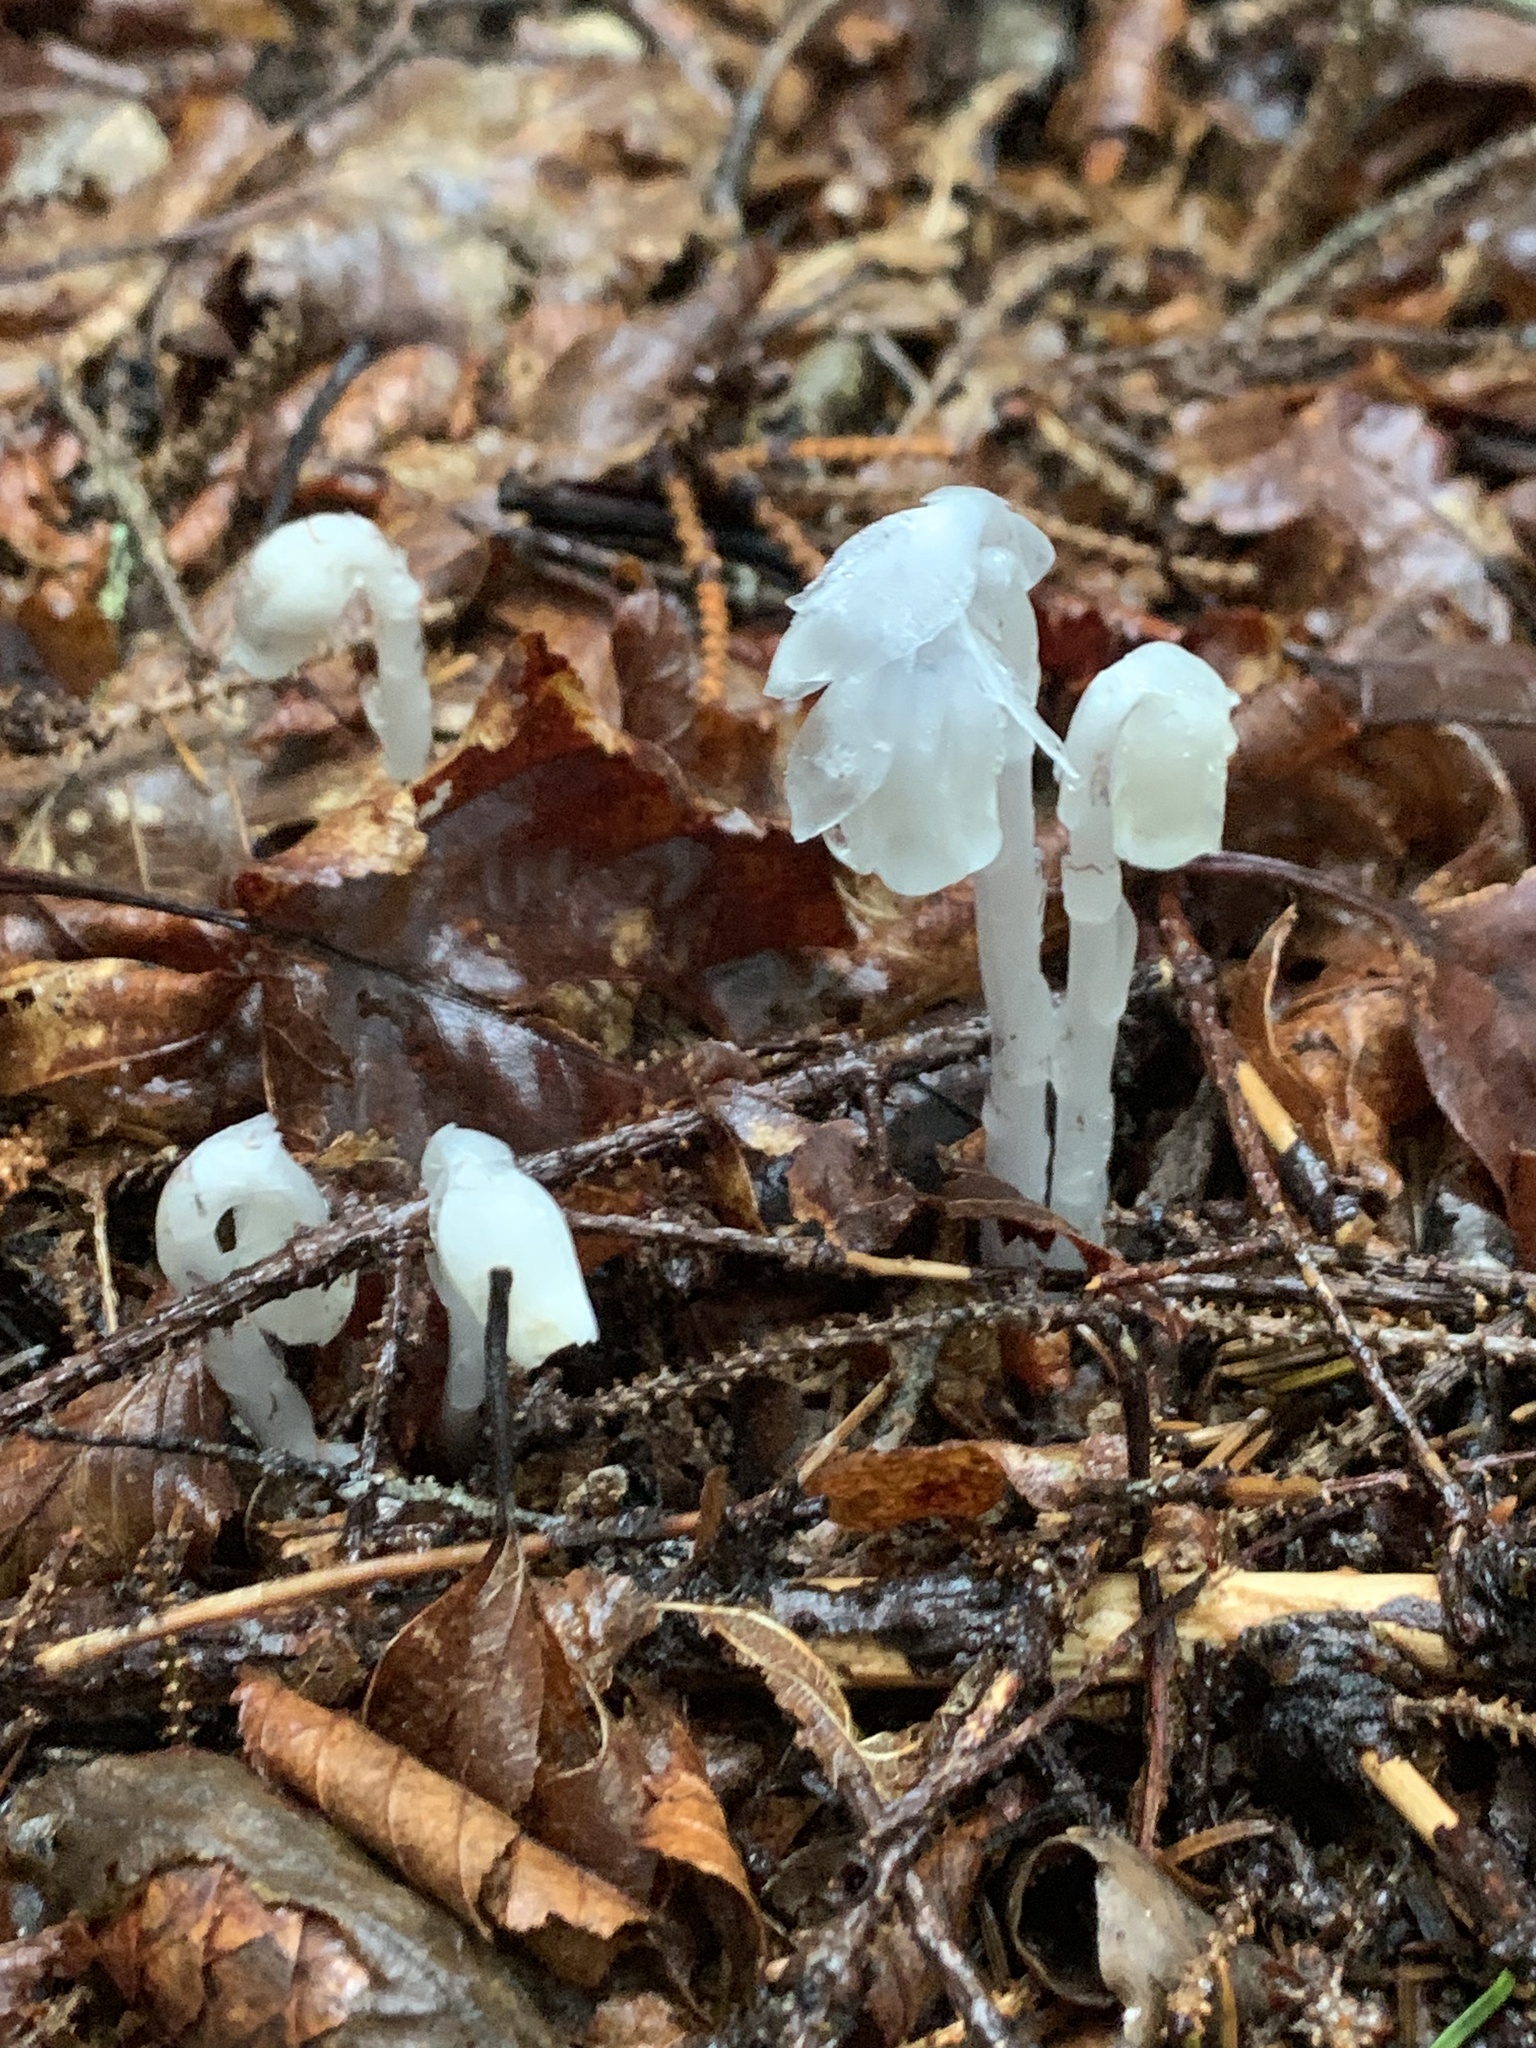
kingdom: Plantae
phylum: Tracheophyta
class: Magnoliopsida
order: Ericales
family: Ericaceae
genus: Monotropa
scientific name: Monotropa uniflora
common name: Convulsion root
